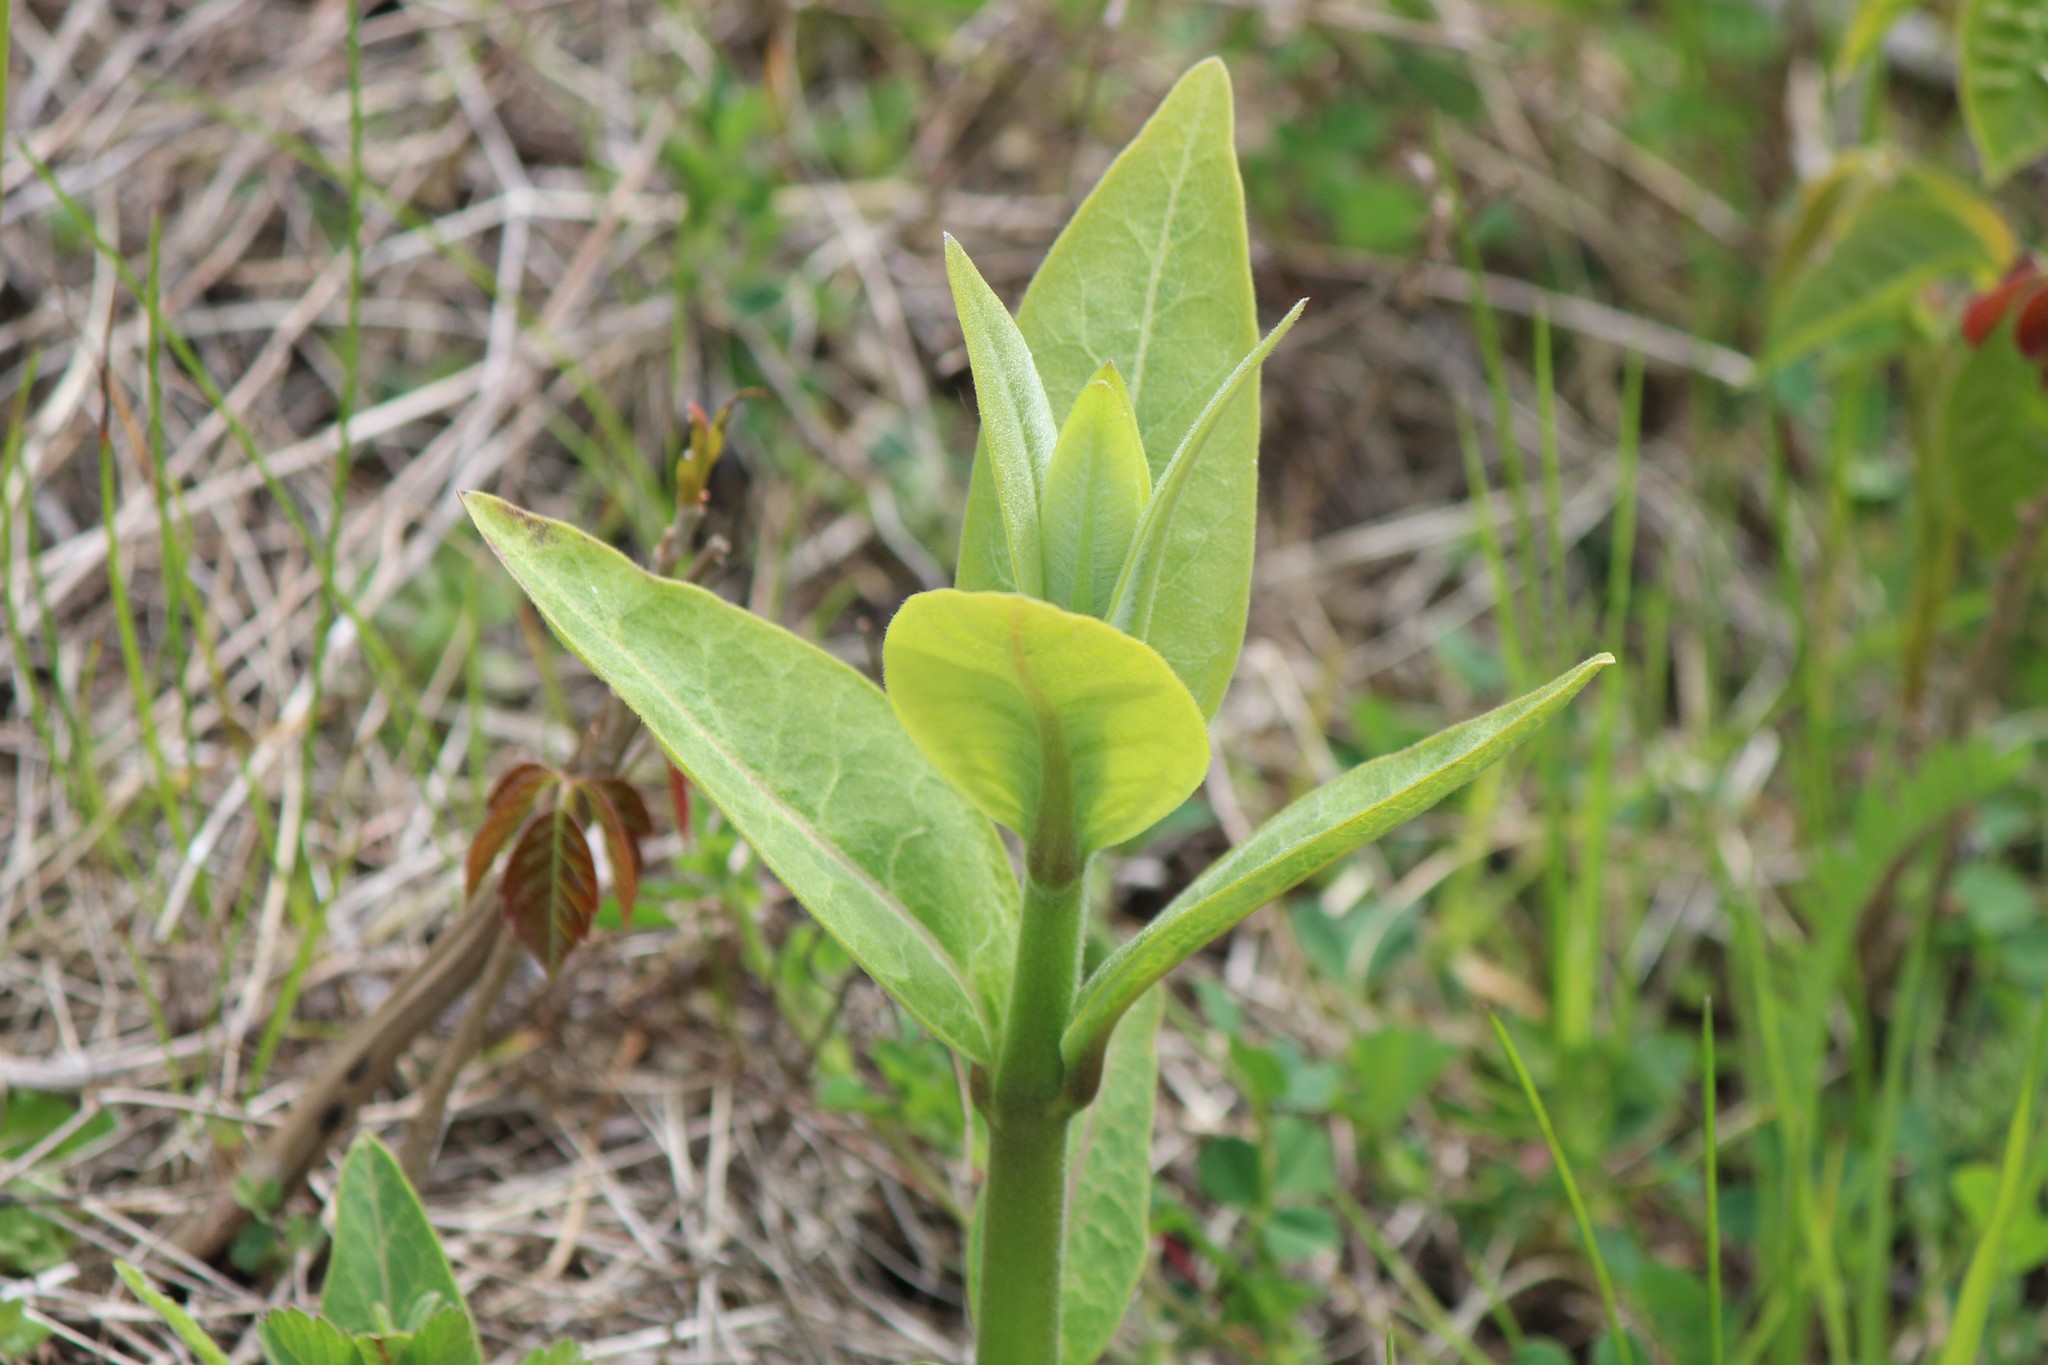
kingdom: Plantae
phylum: Tracheophyta
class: Magnoliopsida
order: Gentianales
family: Apocynaceae
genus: Asclepias
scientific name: Asclepias syriaca
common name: Common milkweed
